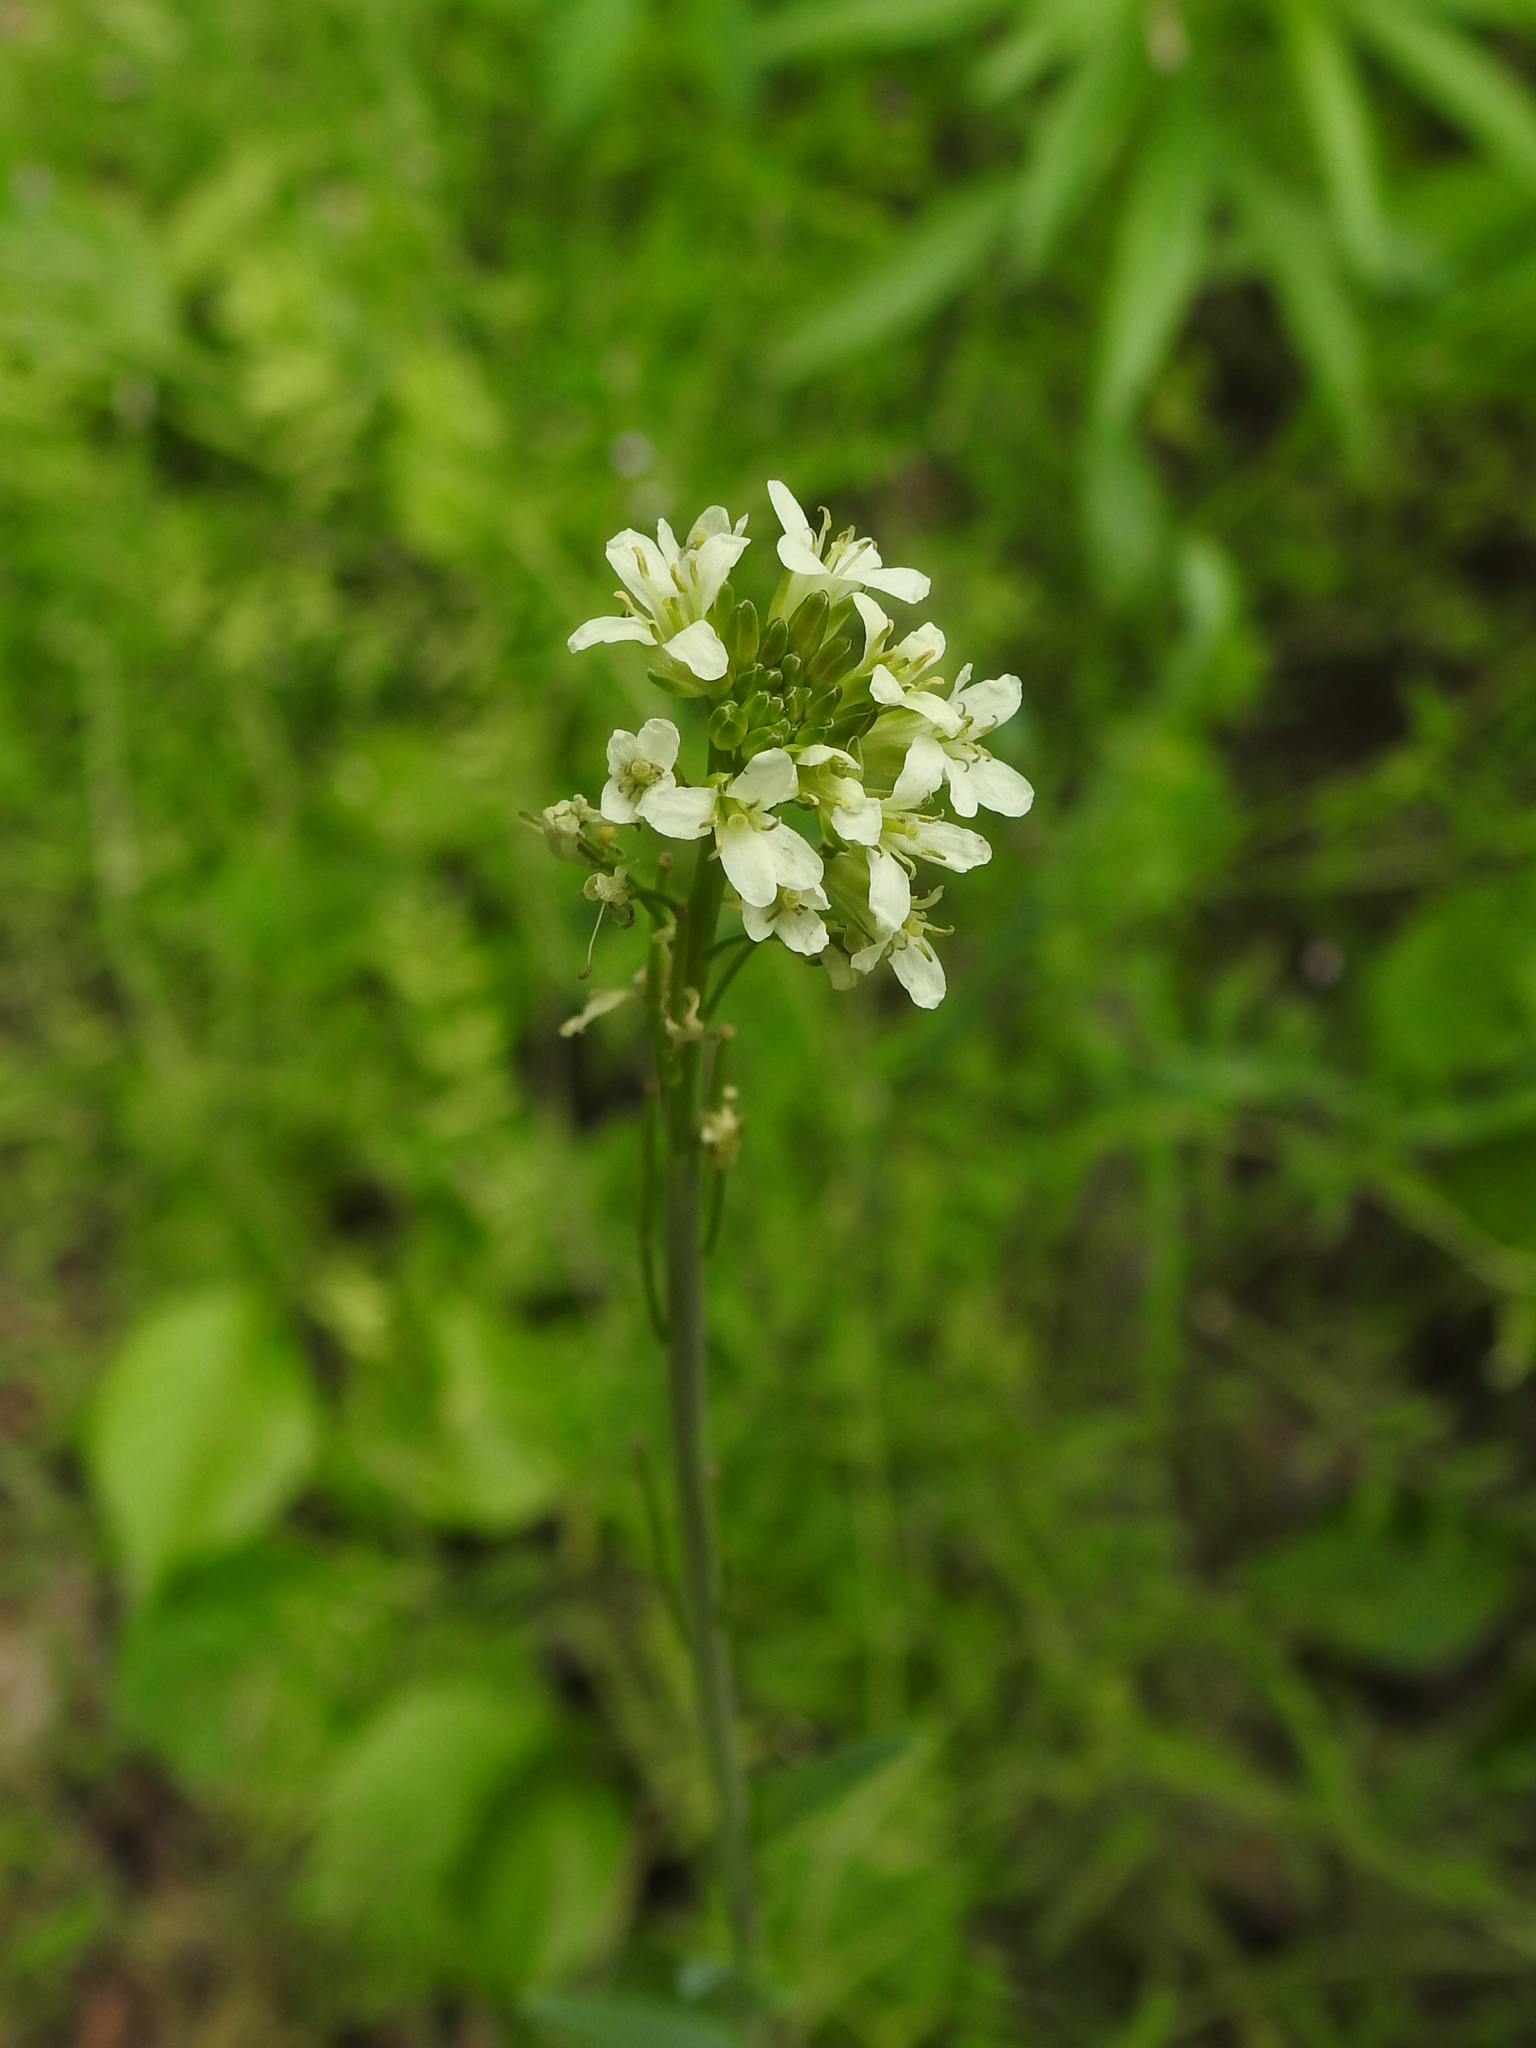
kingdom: Plantae
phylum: Tracheophyta
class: Magnoliopsida
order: Brassicales
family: Brassicaceae
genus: Turritis
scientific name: Turritis glabra
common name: Tower rockcress
